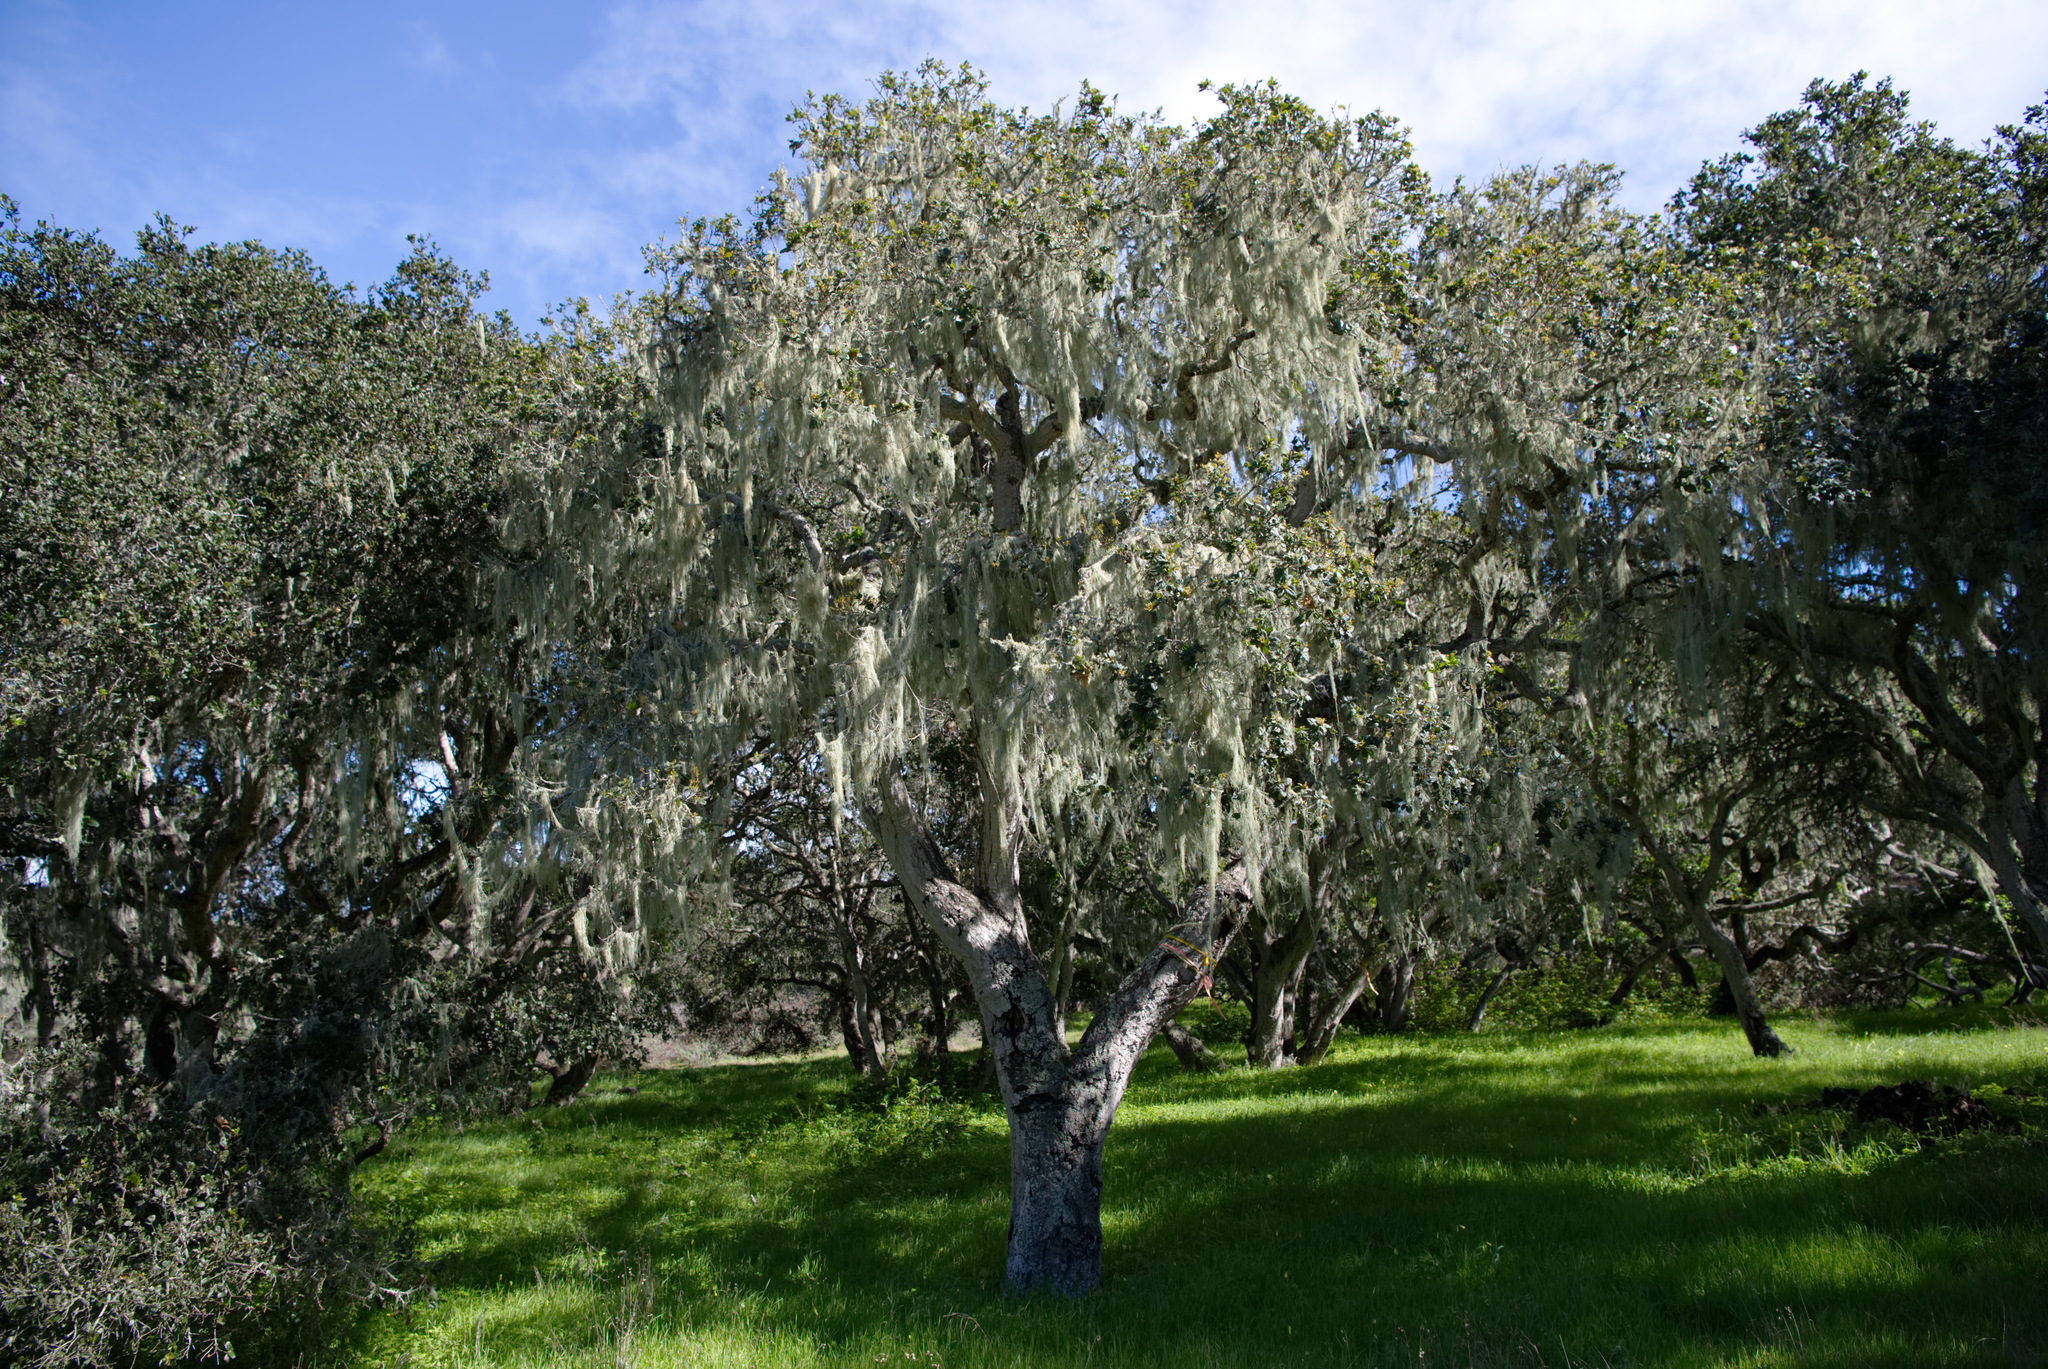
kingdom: Fungi
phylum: Ascomycota
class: Lecanoromycetes
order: Lecanorales
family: Ramalinaceae
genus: Ramalina
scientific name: Ramalina menziesii
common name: Lace lichen
